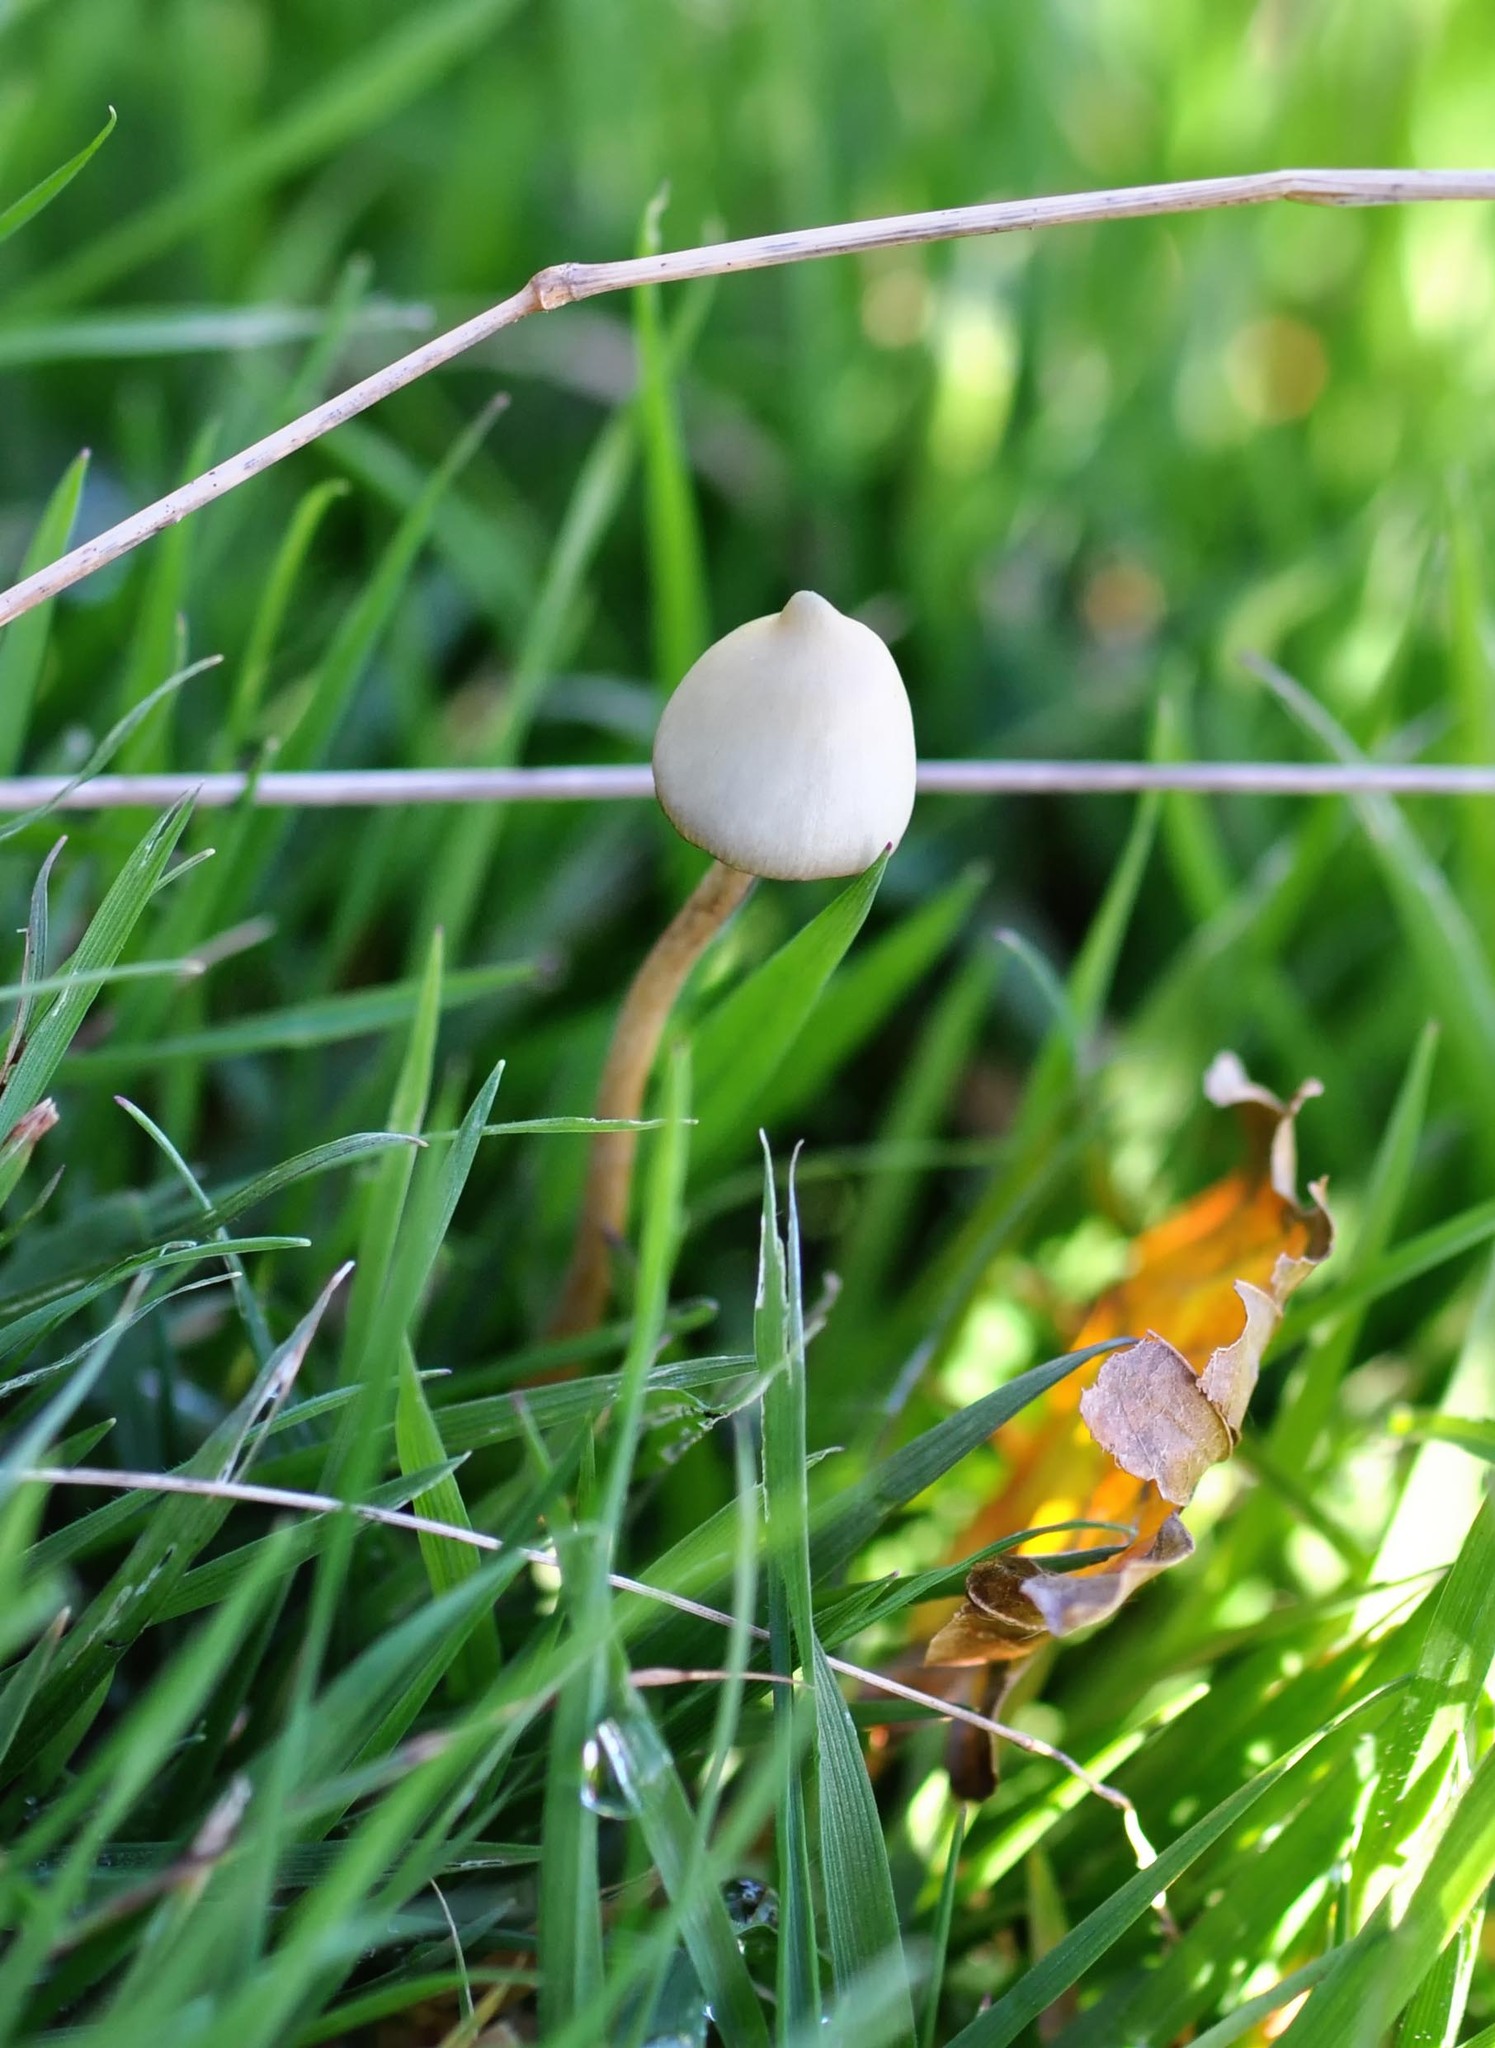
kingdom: Fungi
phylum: Basidiomycota
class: Agaricomycetes
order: Agaricales
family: Hymenogastraceae
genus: Psilocybe
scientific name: Psilocybe semilanceata
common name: Liberty cap
